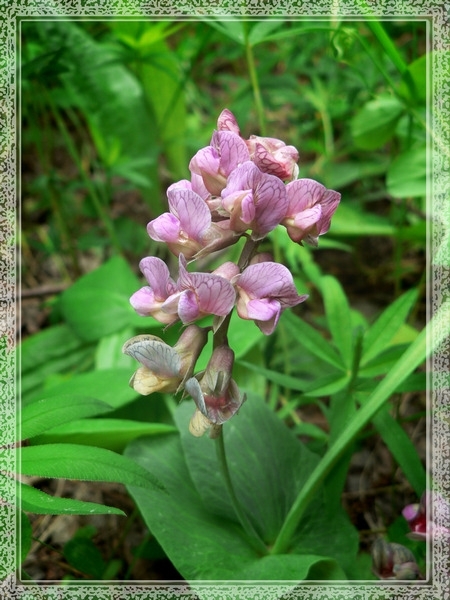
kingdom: Plantae
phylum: Tracheophyta
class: Magnoliopsida
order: Fabales
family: Fabaceae
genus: Lathyrus
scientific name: Lathyrus pisiformis
